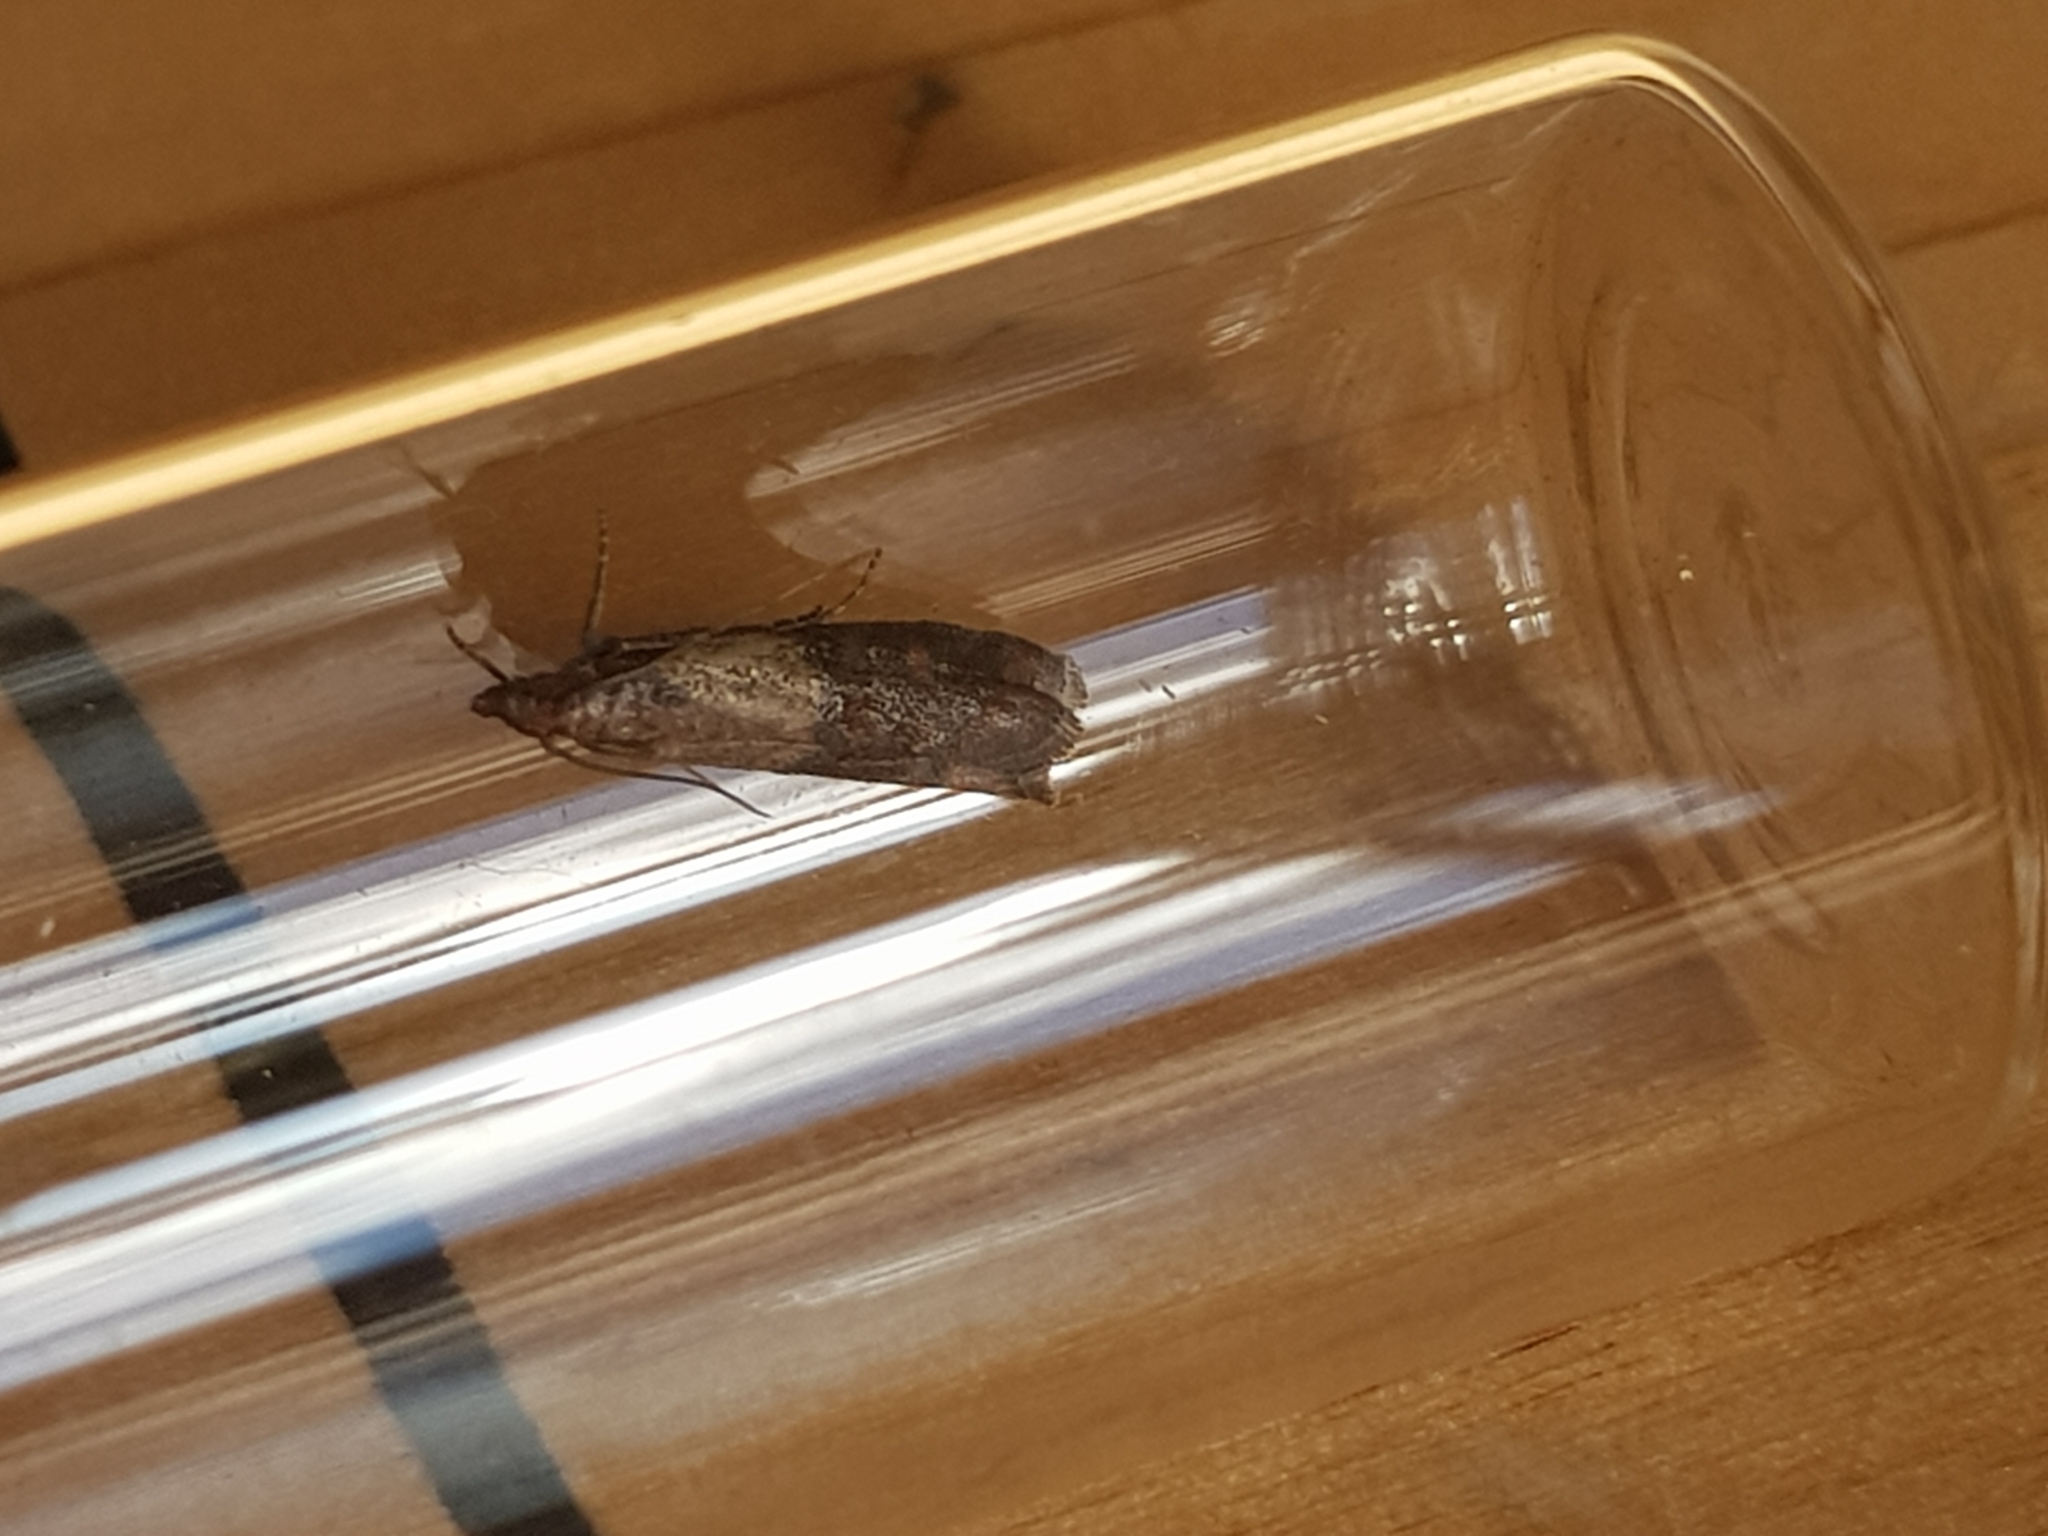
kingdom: Animalia
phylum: Arthropoda
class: Insecta
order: Lepidoptera
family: Pyralidae
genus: Plodia
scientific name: Plodia interpunctella
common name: Indian meal moth
